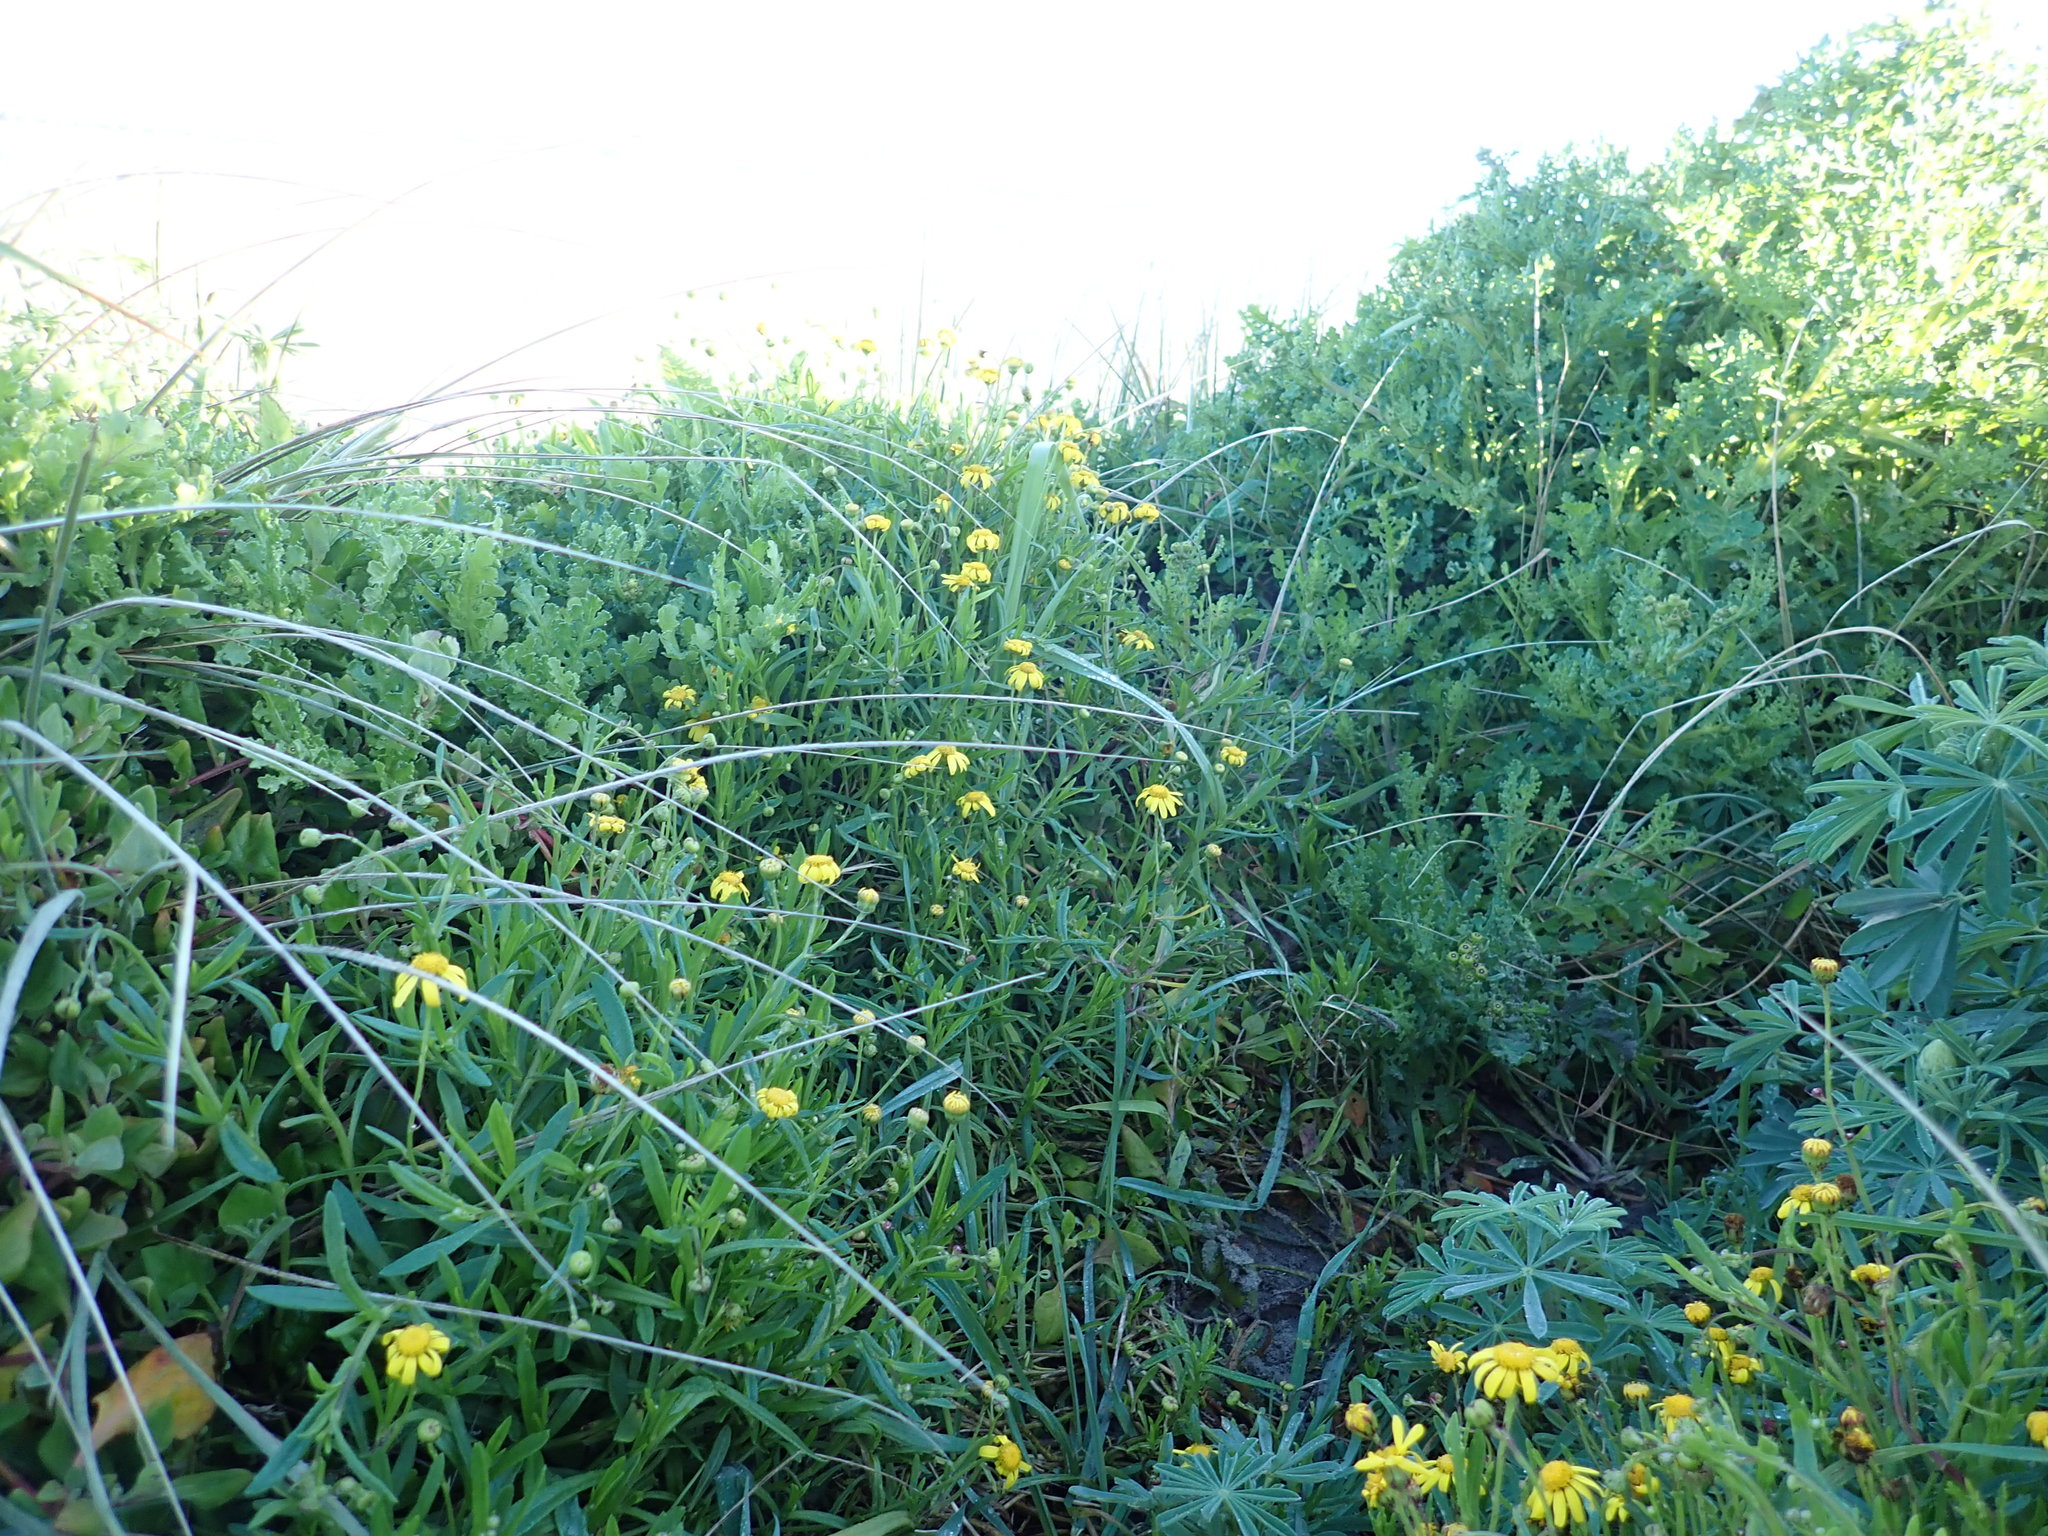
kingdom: Plantae
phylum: Tracheophyta
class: Magnoliopsida
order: Asterales
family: Asteraceae
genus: Senecio
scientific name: Senecio skirrhodon
